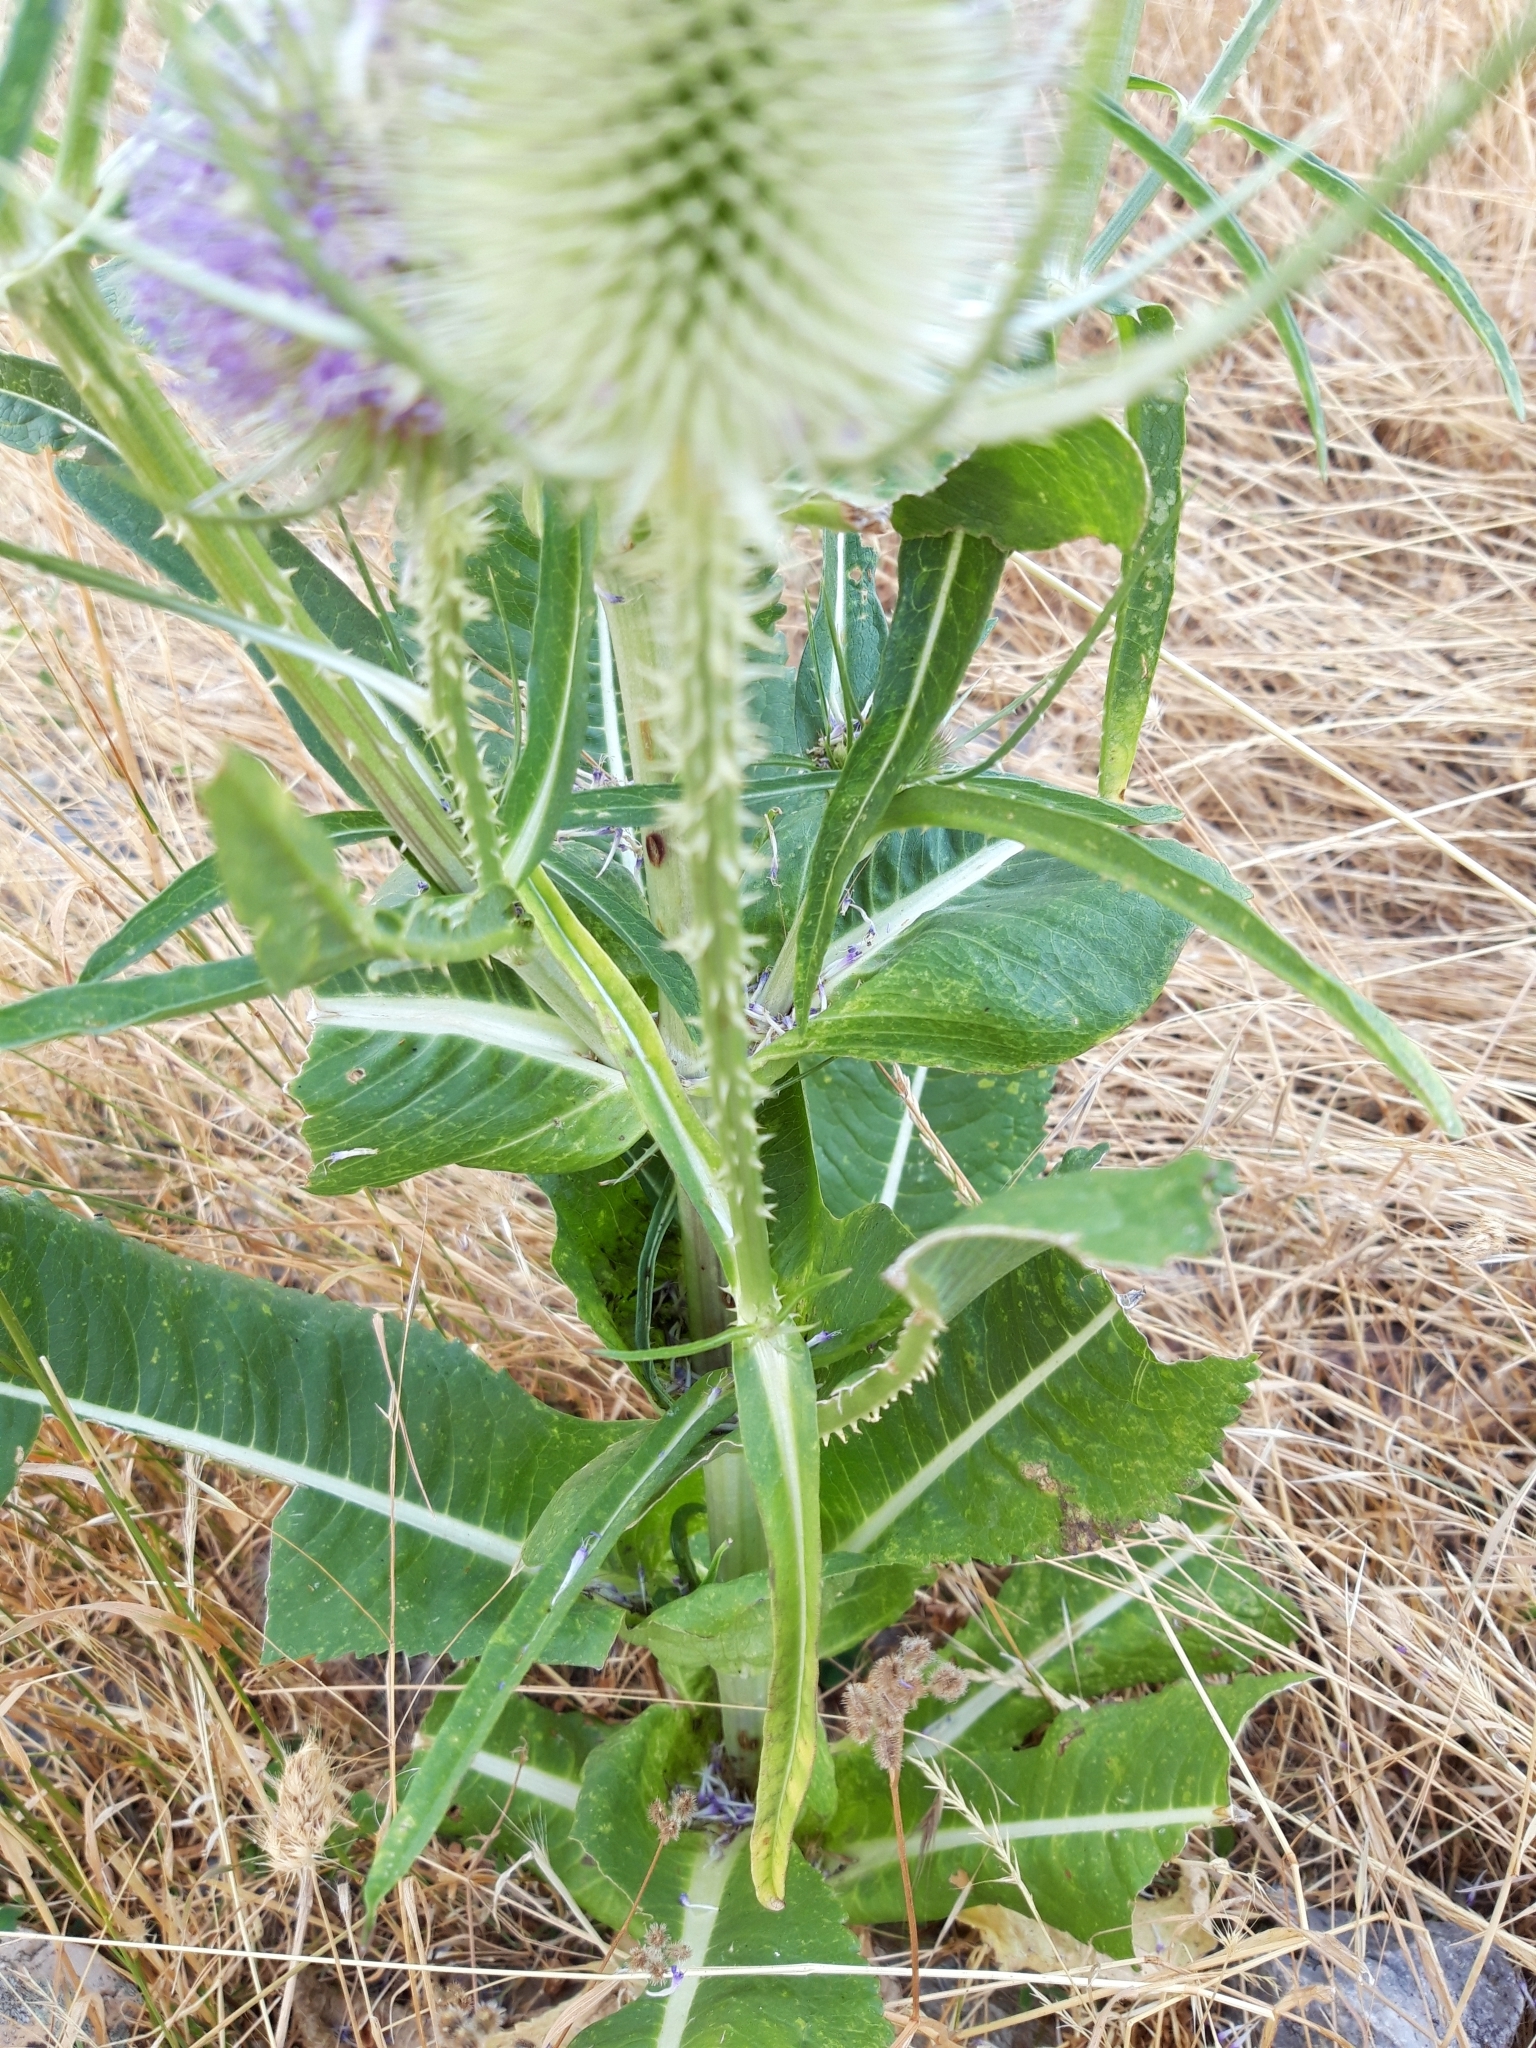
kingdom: Plantae
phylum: Tracheophyta
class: Magnoliopsida
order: Dipsacales
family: Caprifoliaceae
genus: Dipsacus
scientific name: Dipsacus fullonum
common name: Teasel
